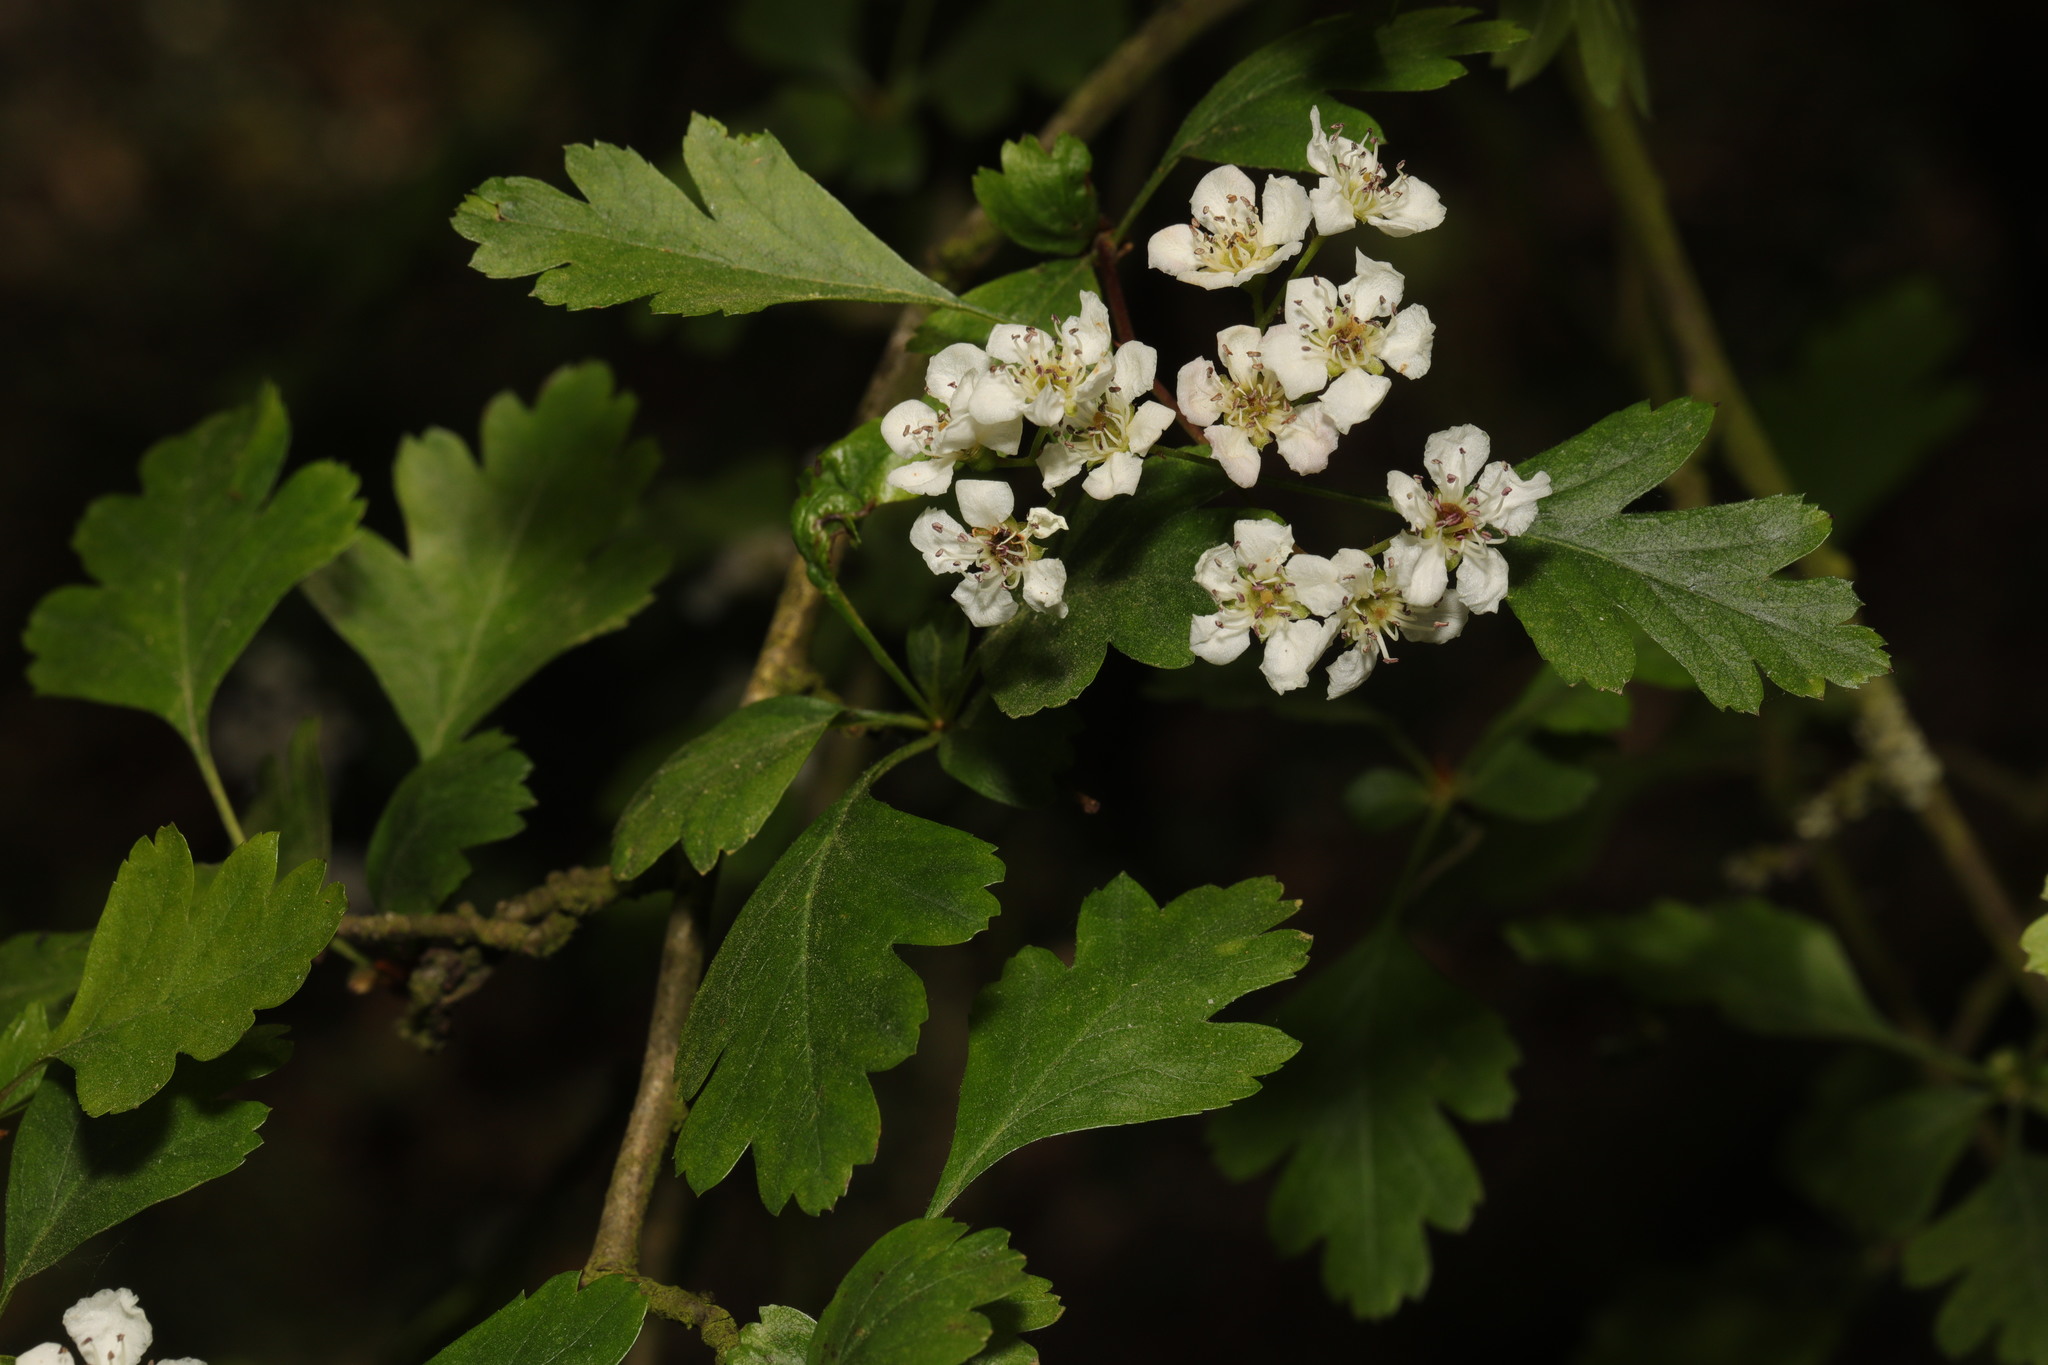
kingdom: Plantae
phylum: Tracheophyta
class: Magnoliopsida
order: Rosales
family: Rosaceae
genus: Crataegus
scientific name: Crataegus monogyna
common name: Hawthorn
